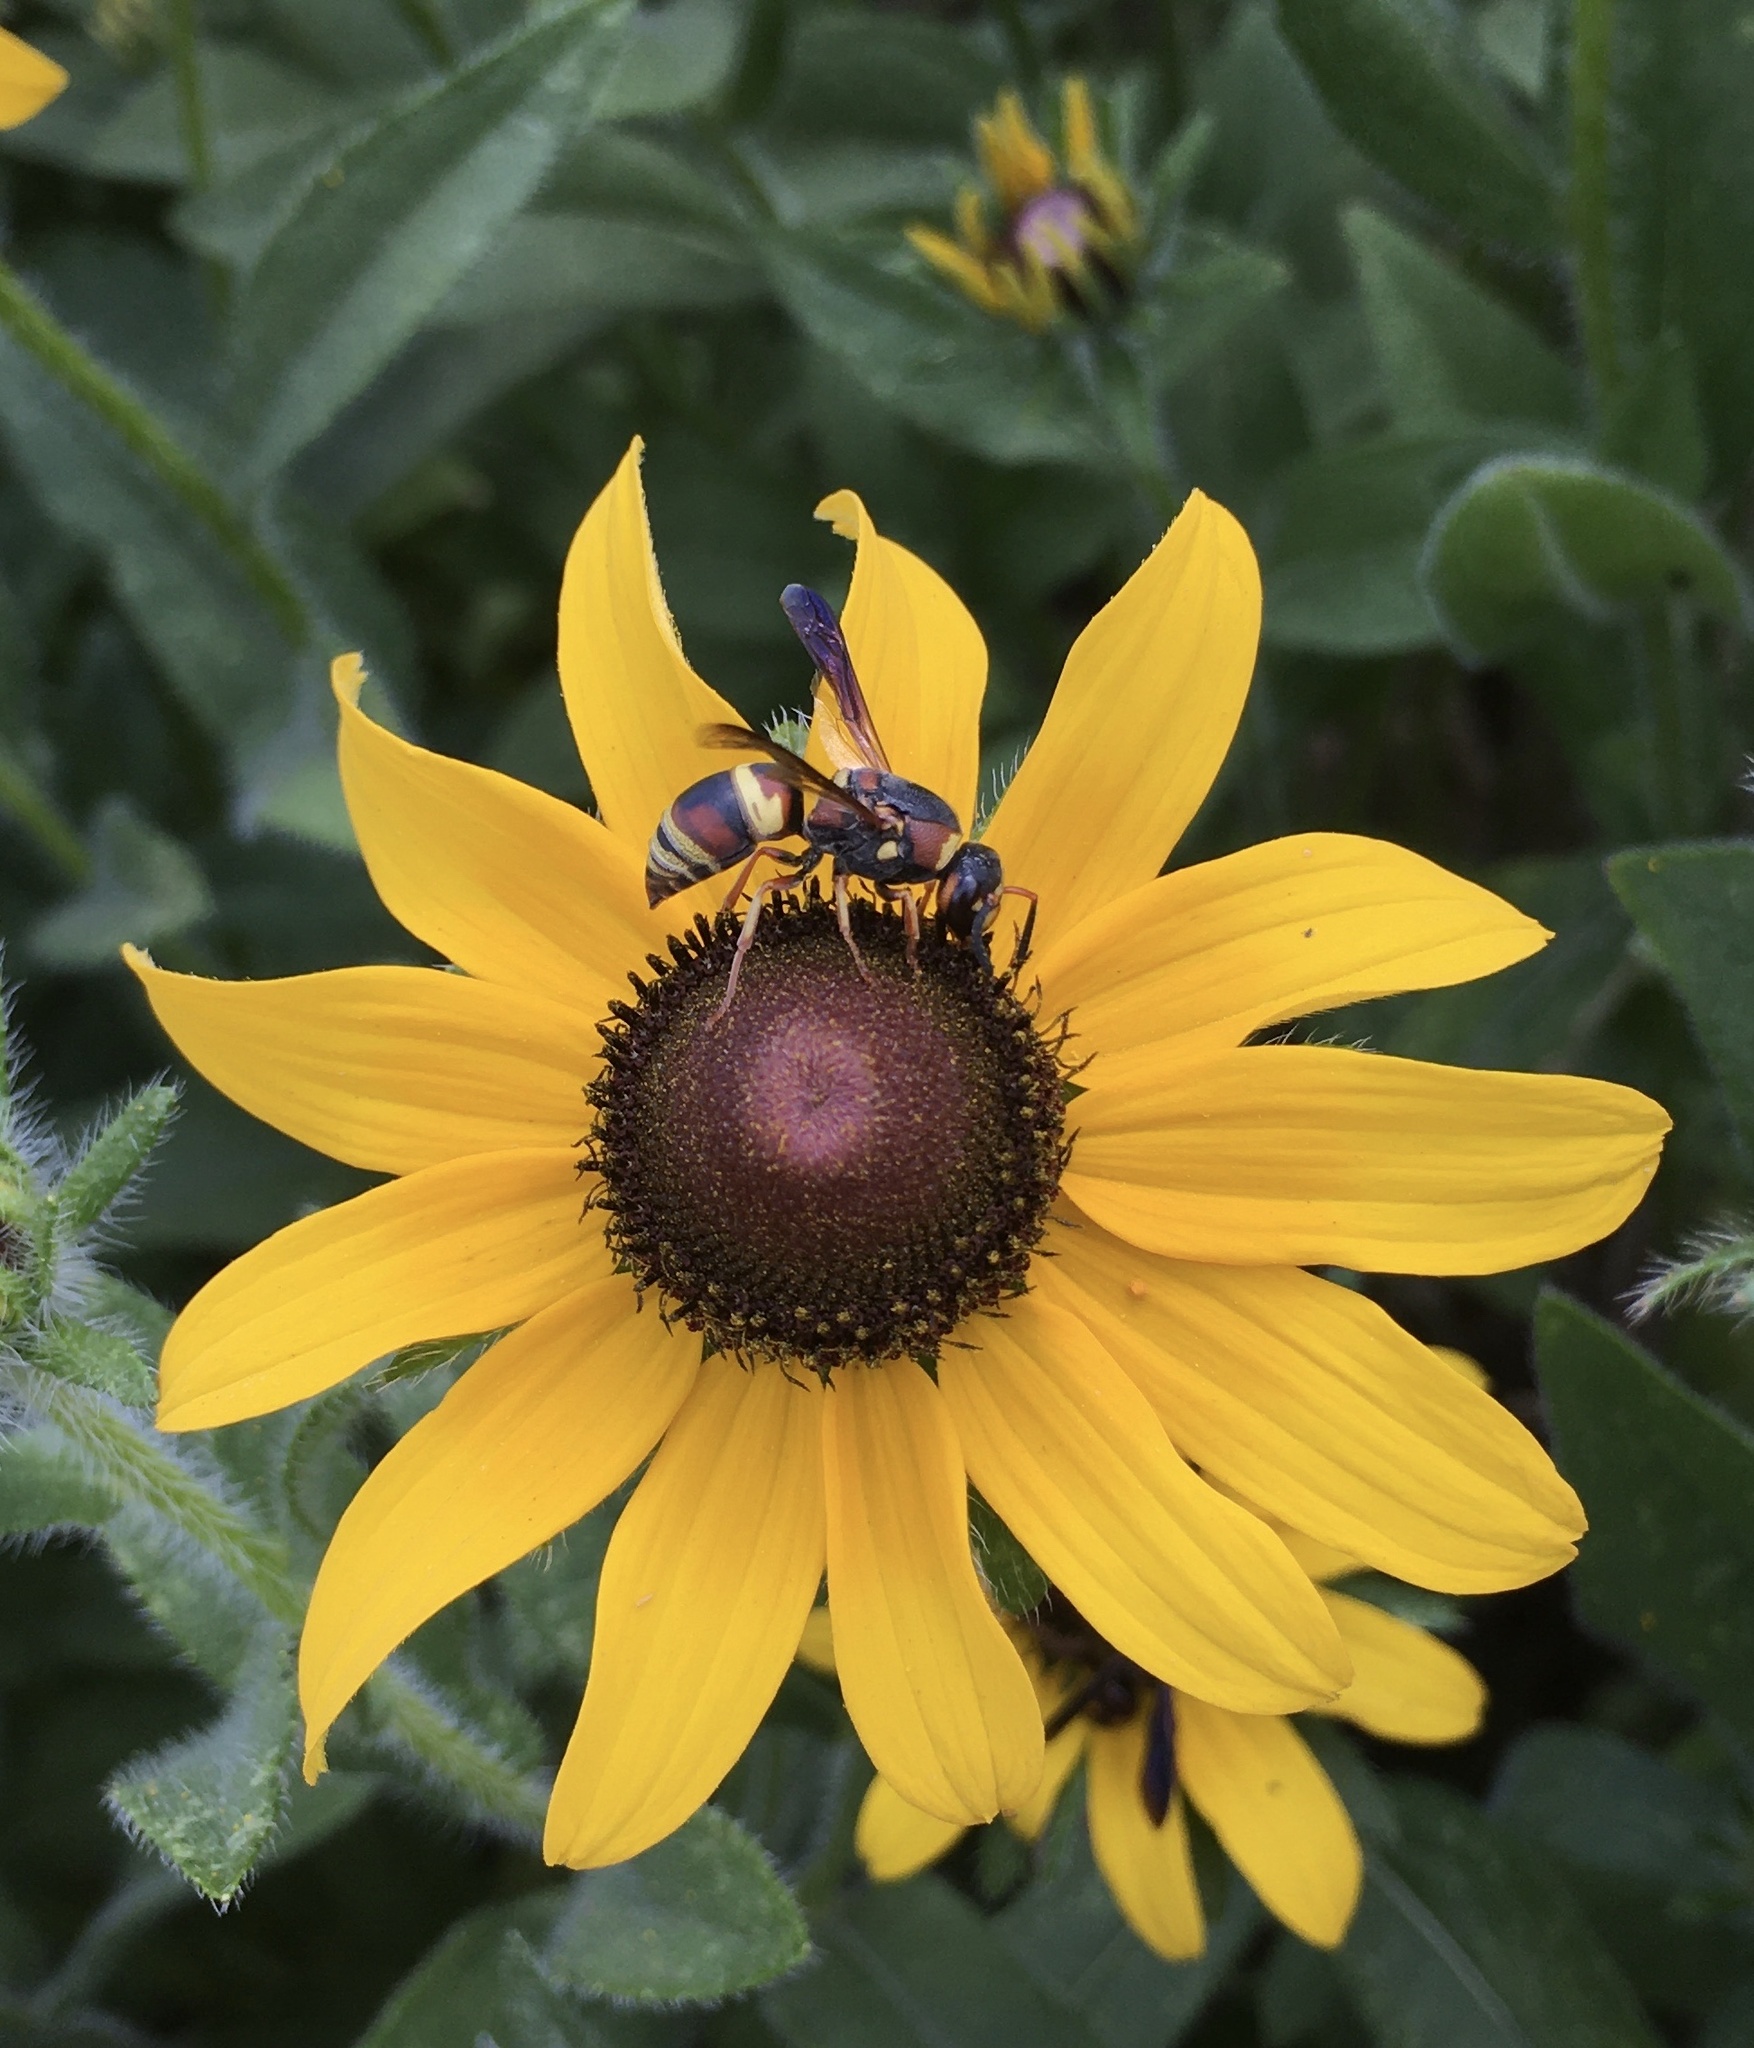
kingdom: Animalia
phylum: Arthropoda
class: Insecta
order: Hymenoptera
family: Eumenidae
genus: Euodynerus
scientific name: Euodynerus hidalgo
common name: Wasp
